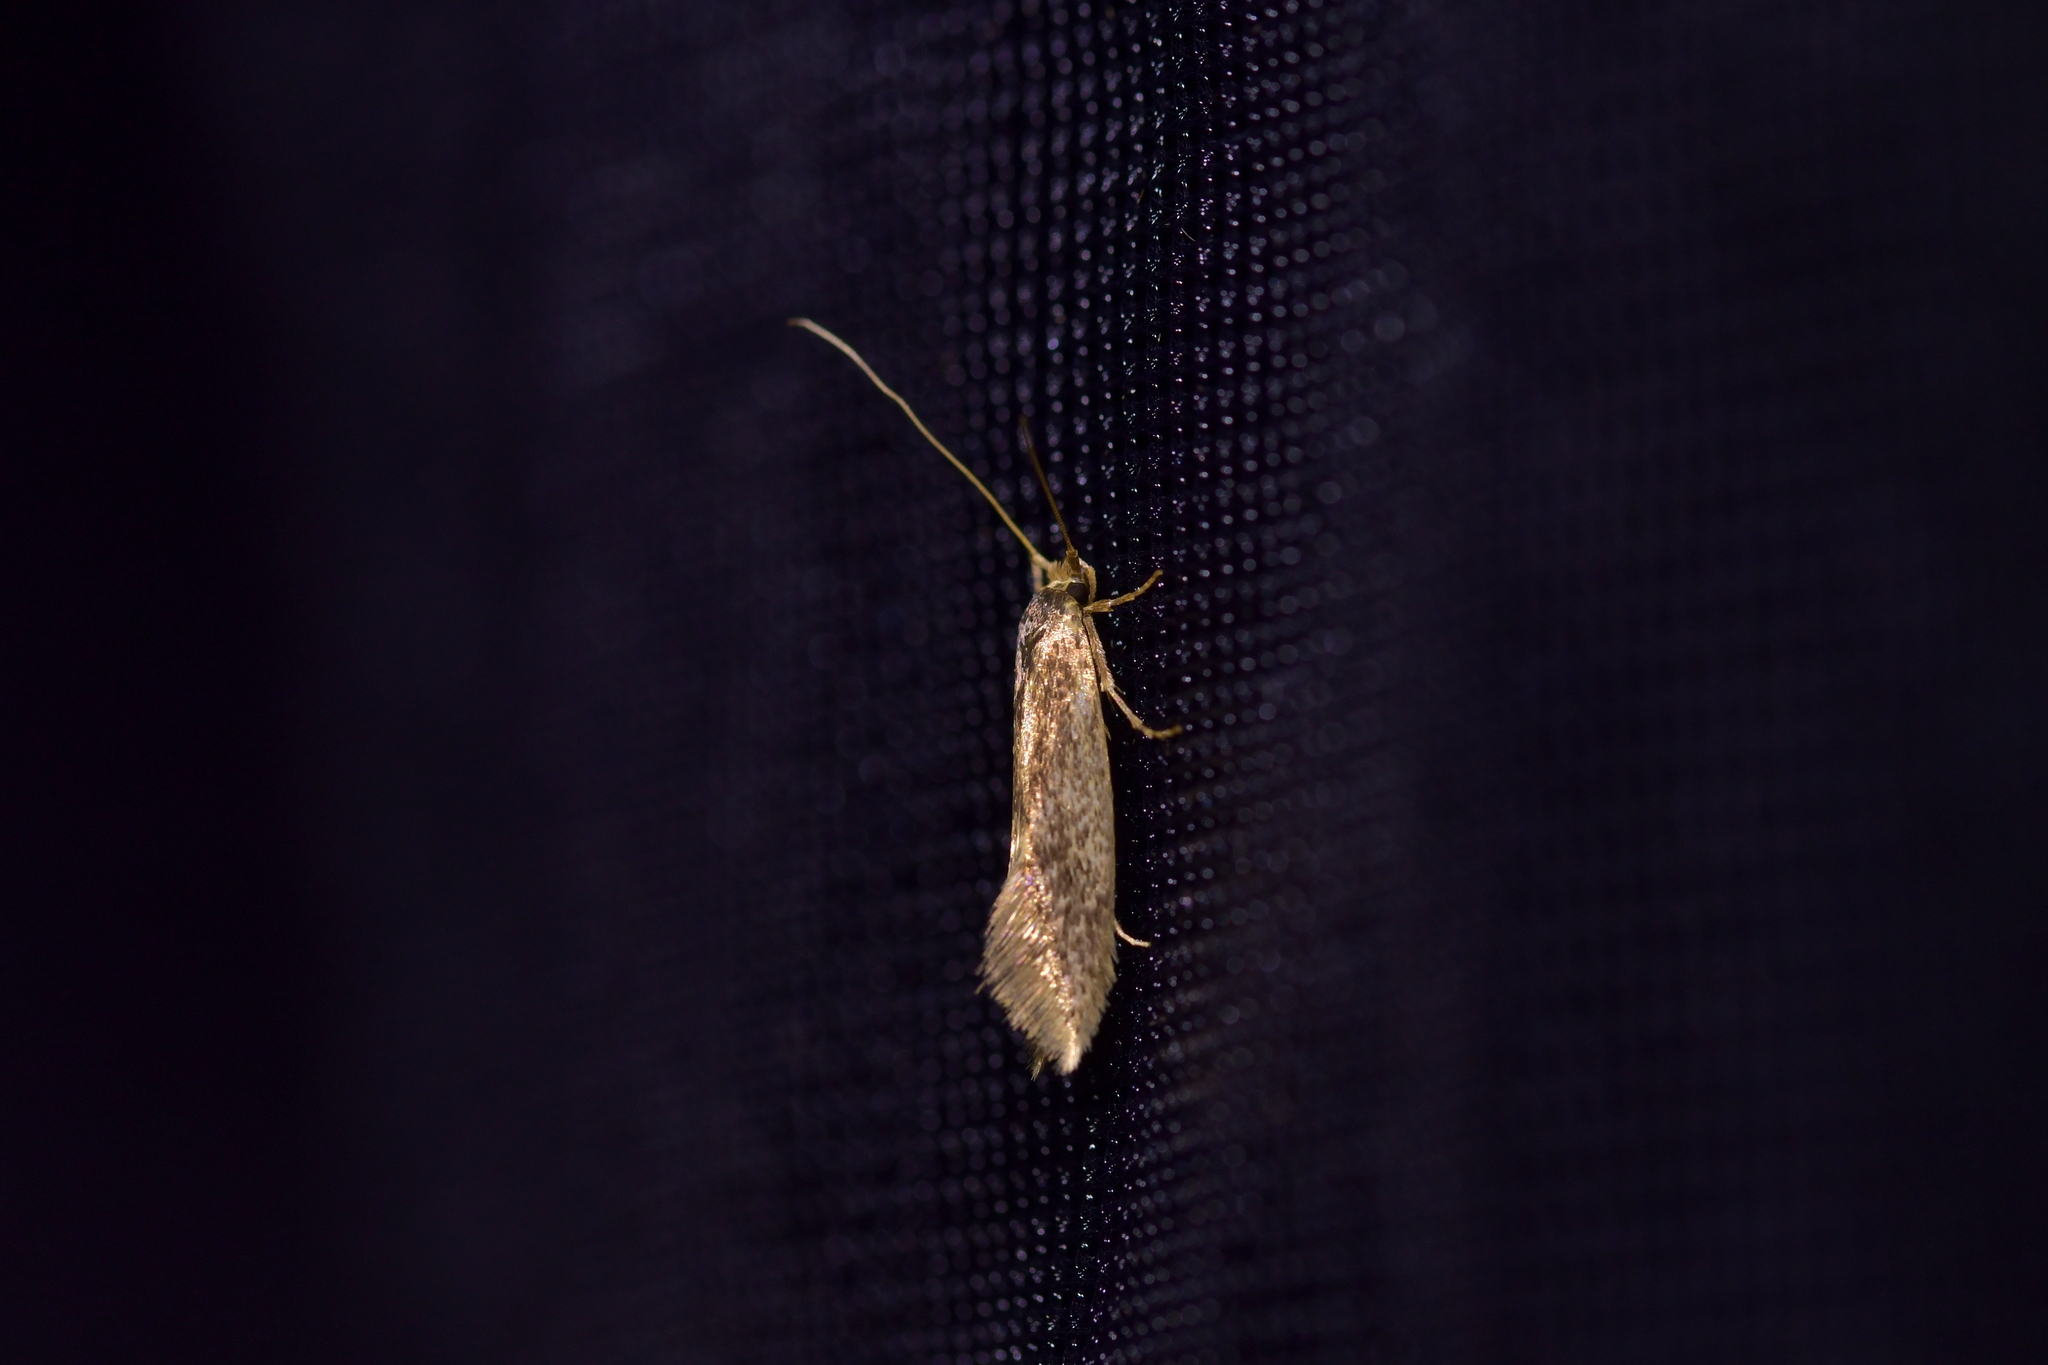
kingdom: Animalia
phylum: Arthropoda
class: Insecta
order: Lepidoptera
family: Tineidae
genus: Opogona
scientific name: Opogona omoscopa
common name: Moth
